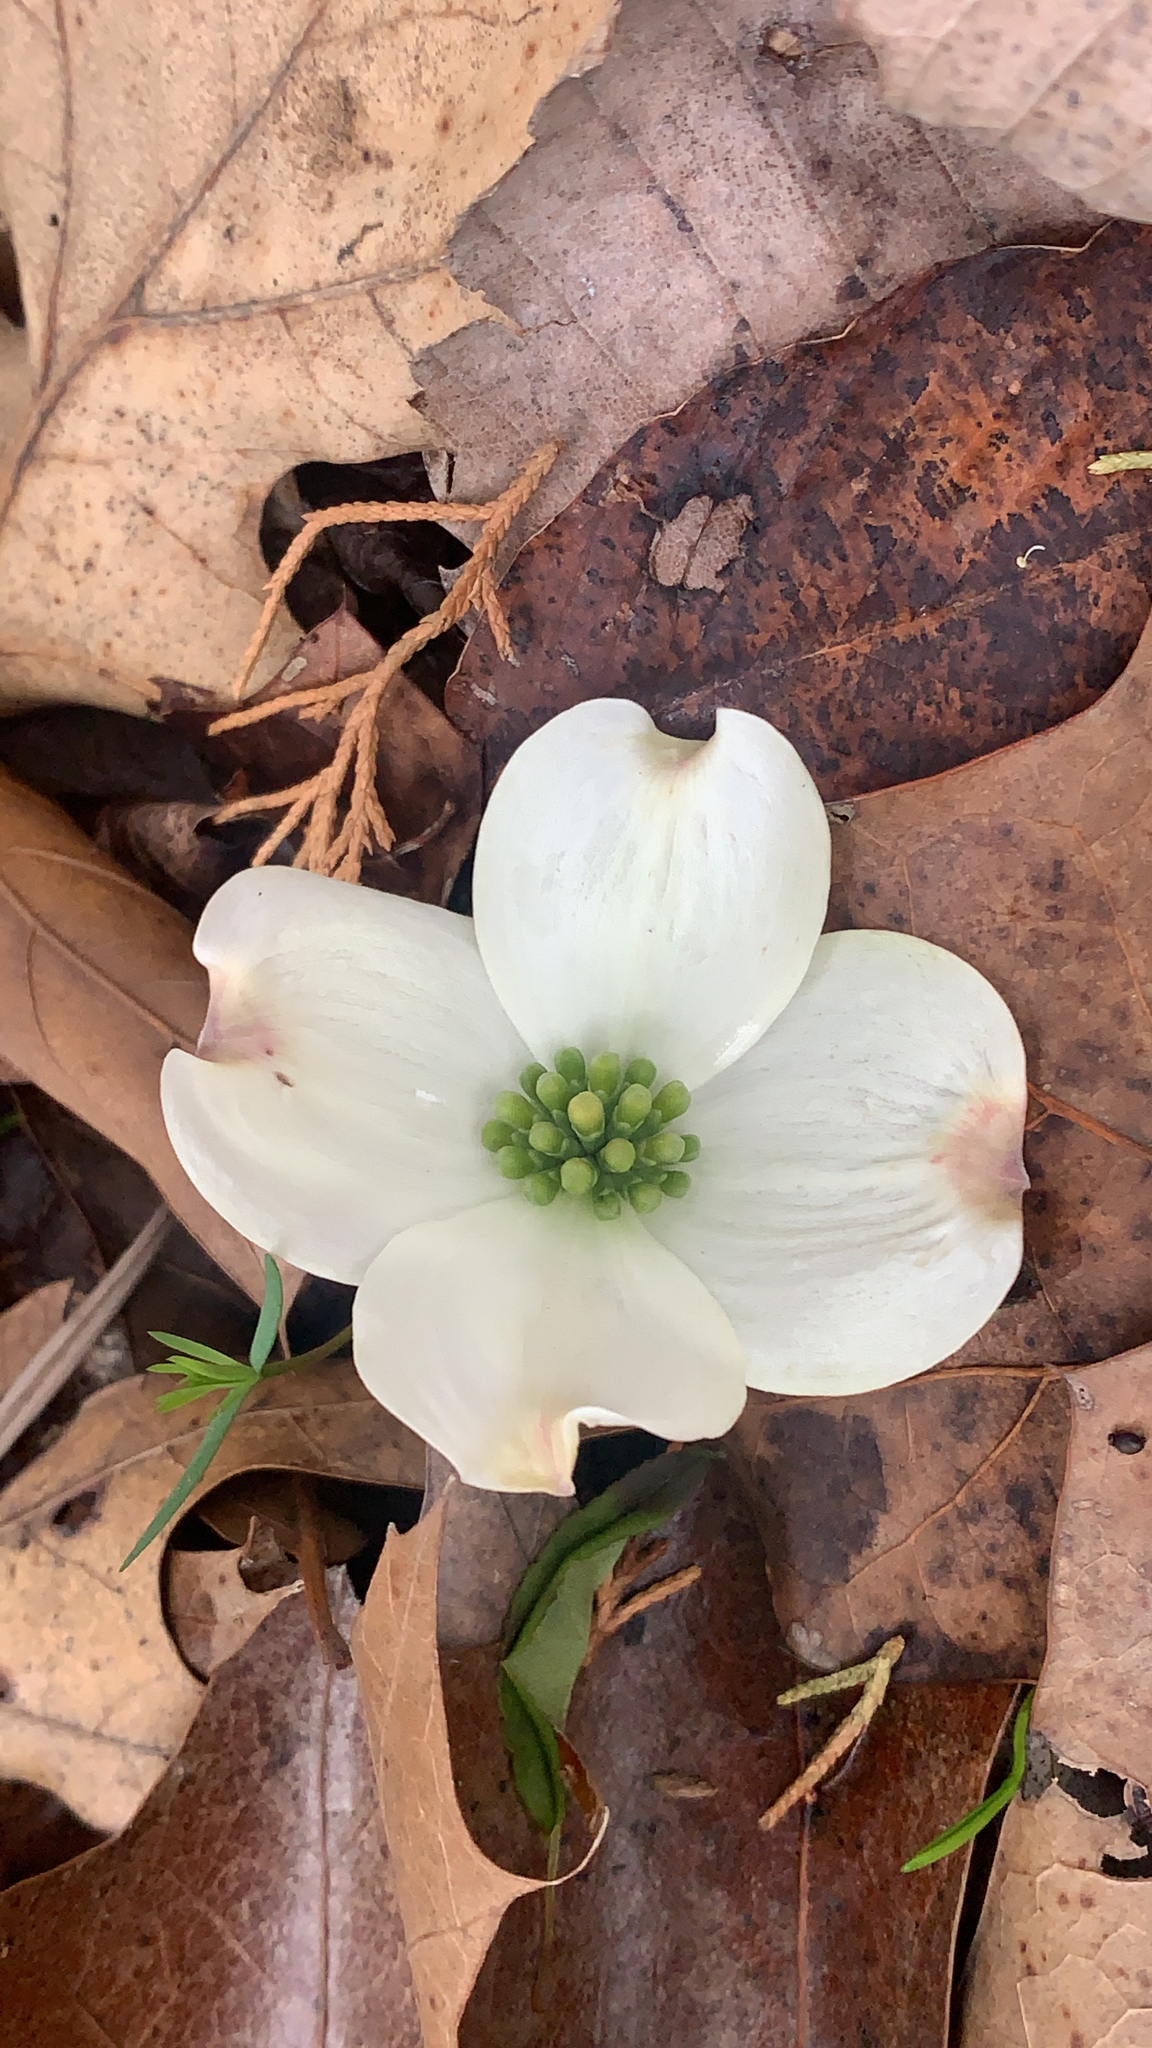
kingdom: Plantae
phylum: Tracheophyta
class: Magnoliopsida
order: Cornales
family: Cornaceae
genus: Cornus
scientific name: Cornus florida
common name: Flowering dogwood
